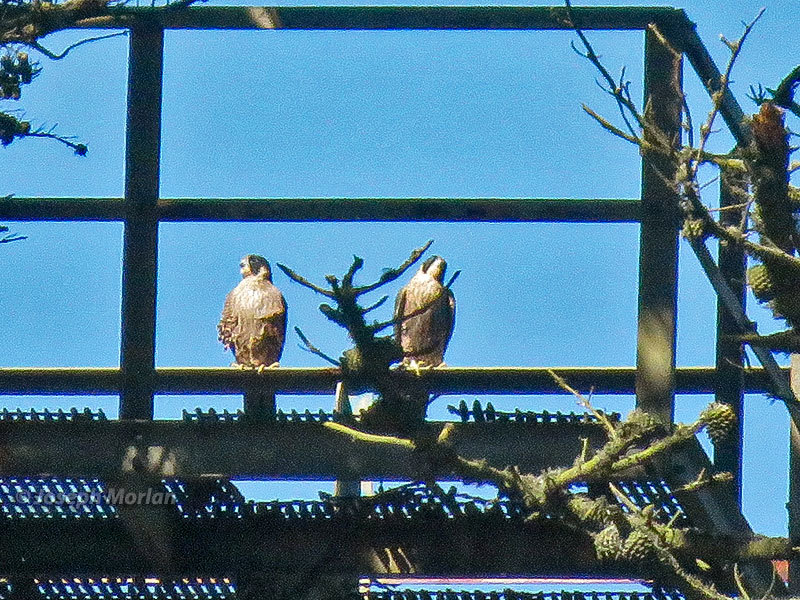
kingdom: Animalia
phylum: Chordata
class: Aves
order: Falconiformes
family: Falconidae
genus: Falco
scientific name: Falco peregrinus
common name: Peregrine falcon
